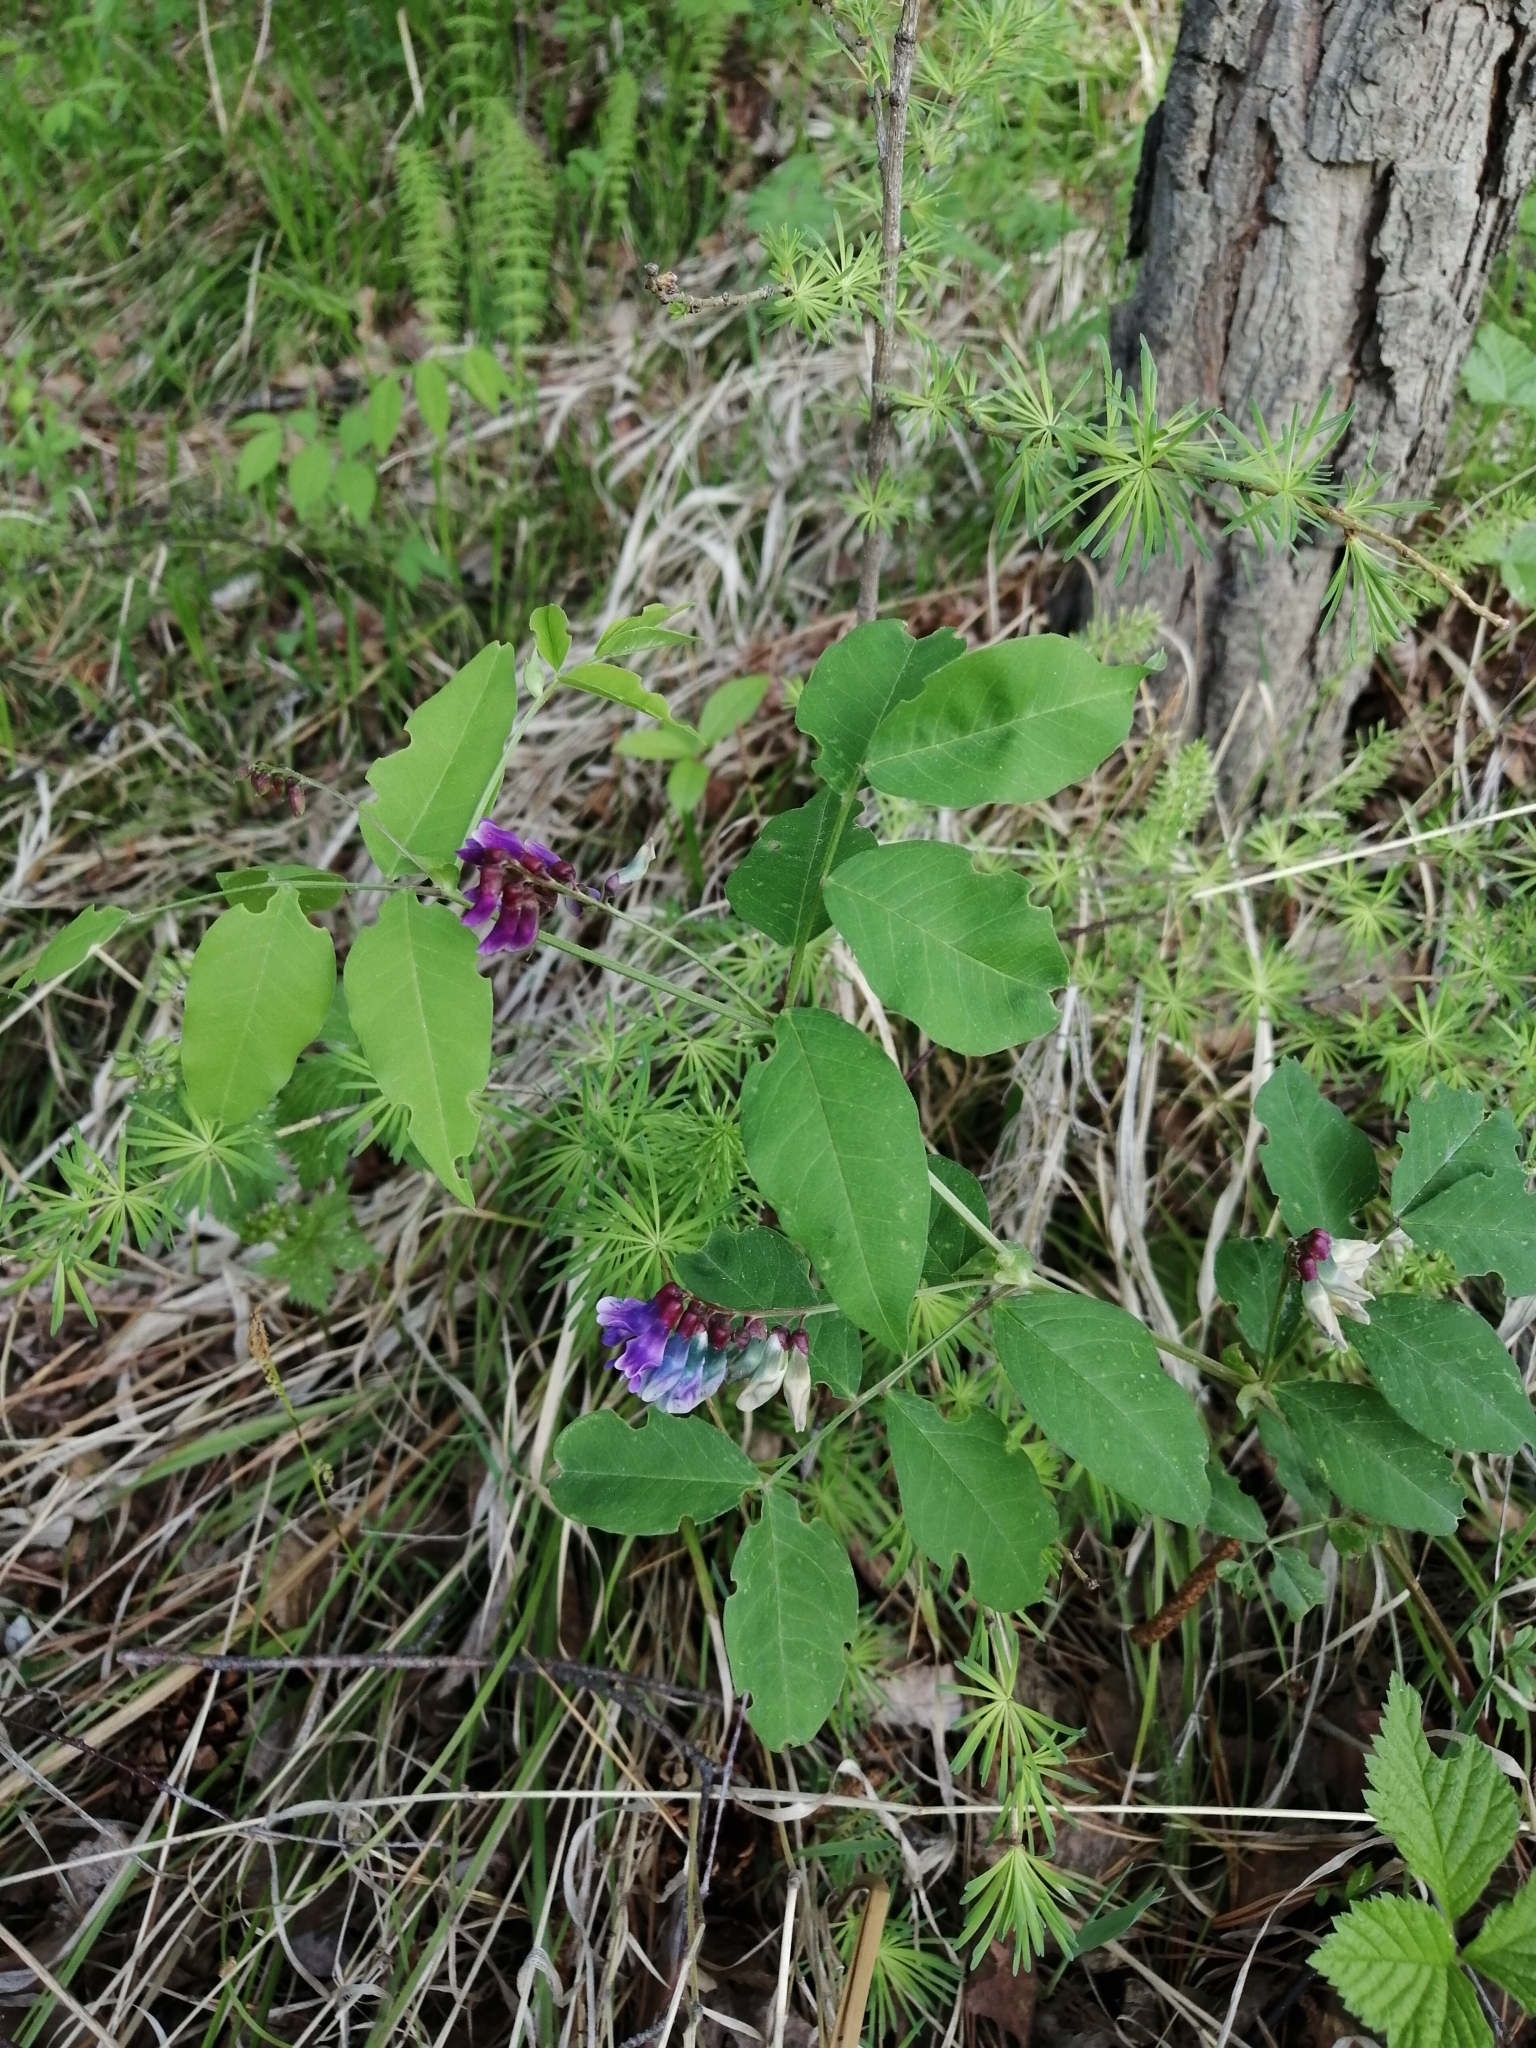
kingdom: Plantae
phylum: Tracheophyta
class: Magnoliopsida
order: Fabales
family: Fabaceae
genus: Vicia
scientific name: Vicia ramuliflora
